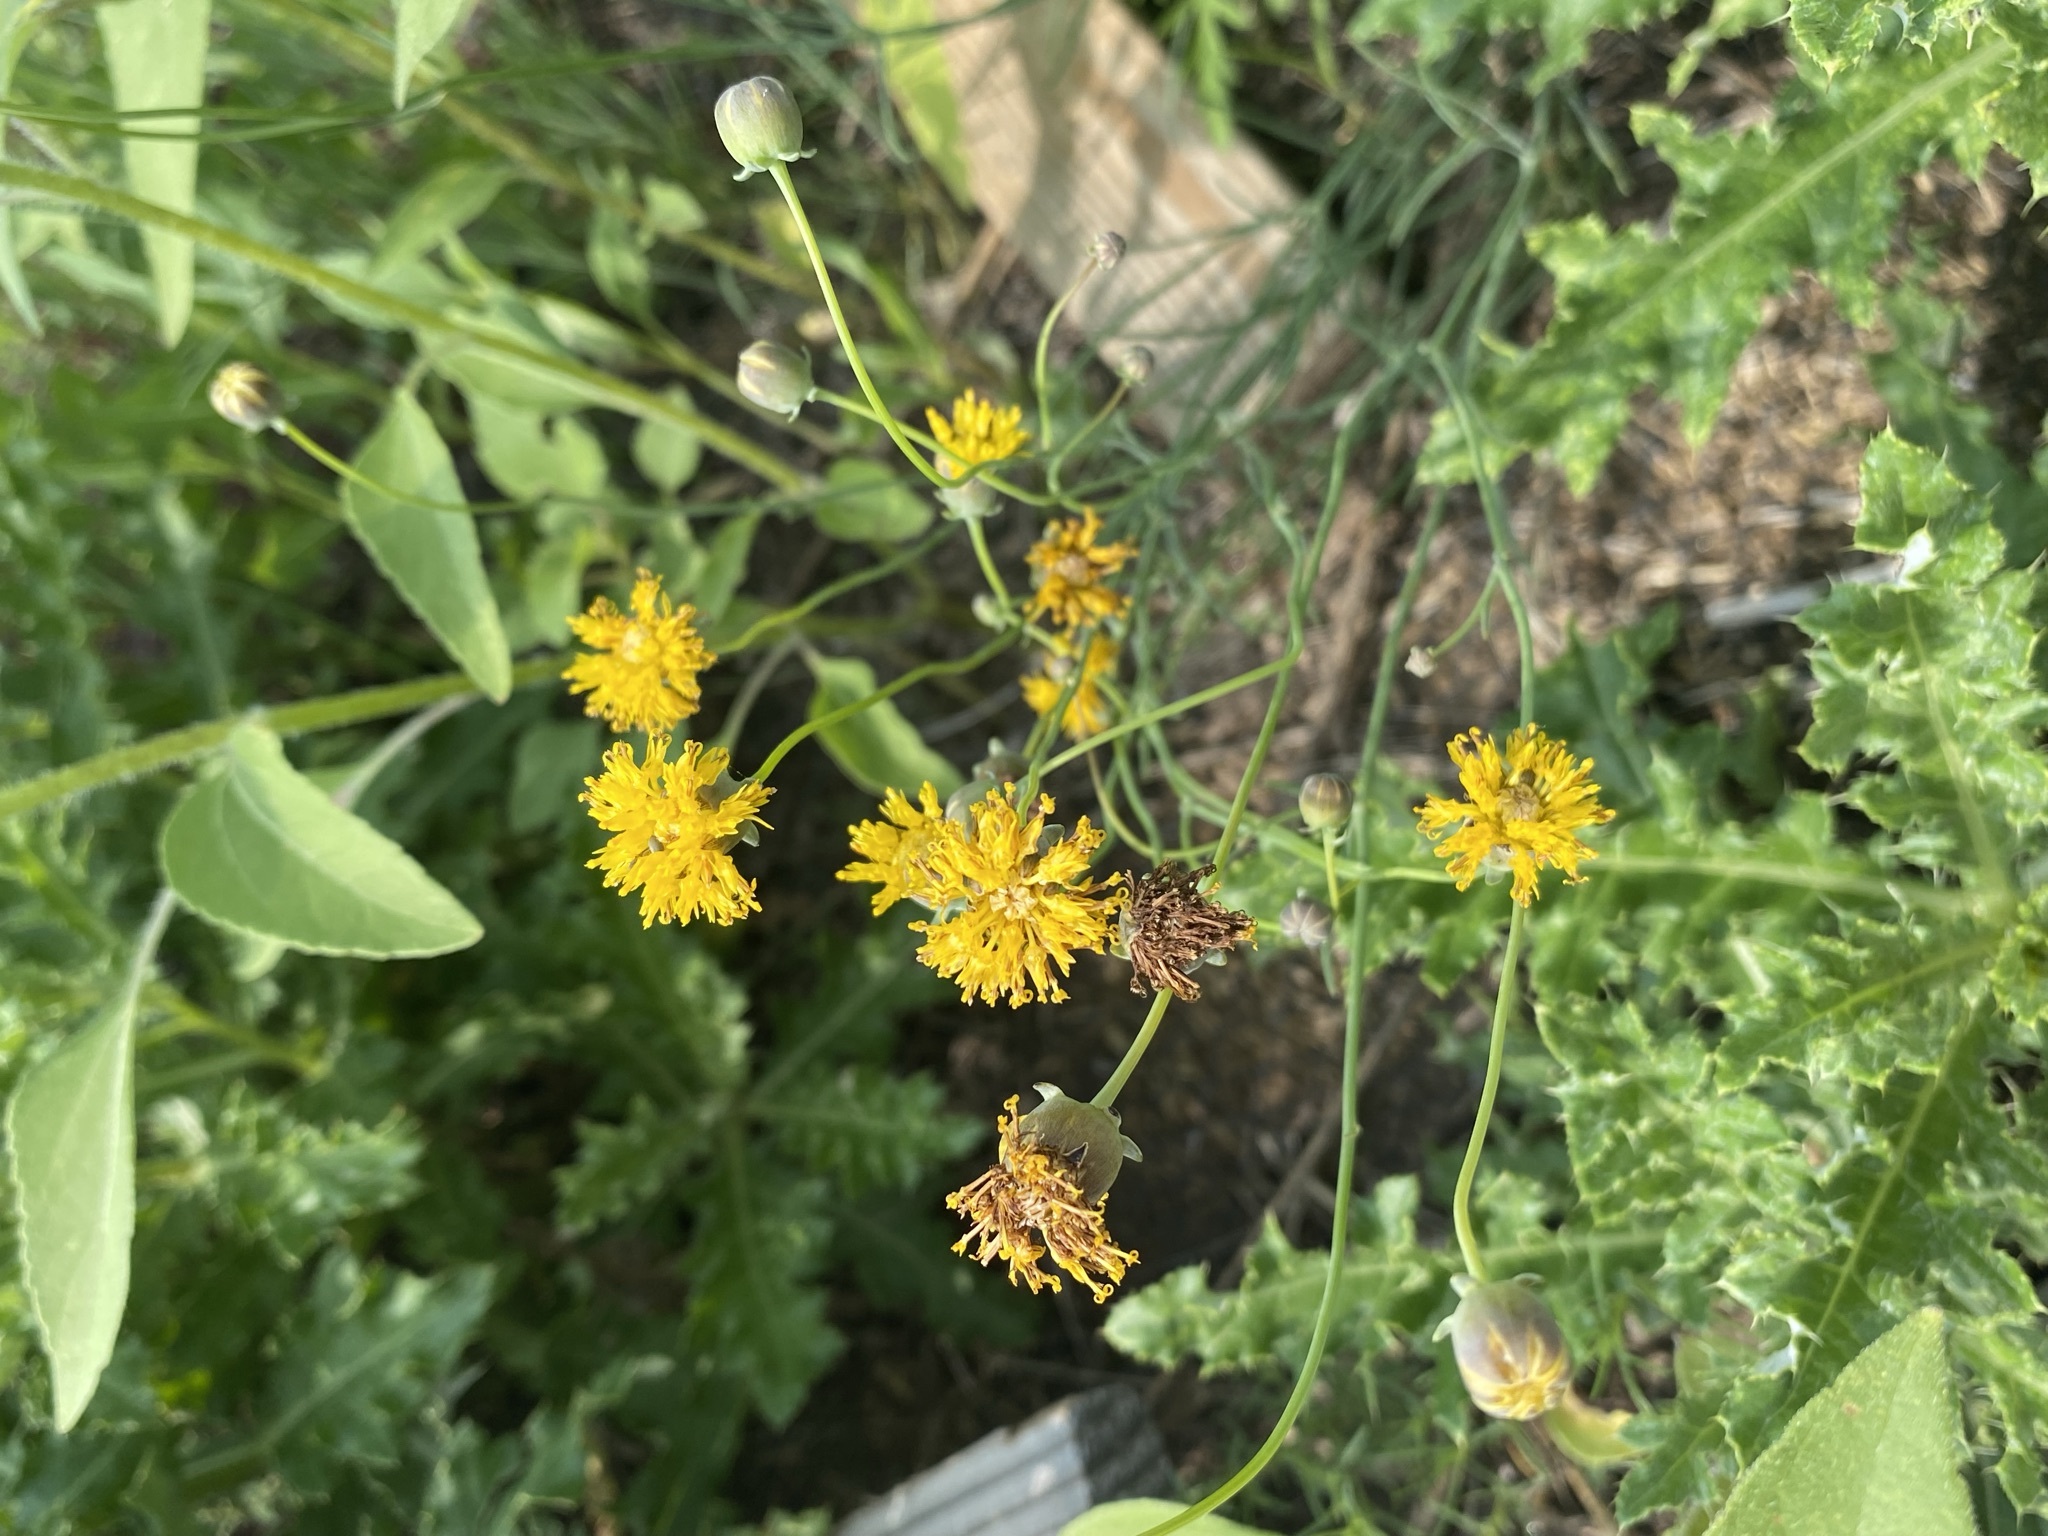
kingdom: Plantae
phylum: Tracheophyta
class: Magnoliopsida
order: Asterales
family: Asteraceae
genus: Thelesperma
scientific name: Thelesperma megapotamicum
